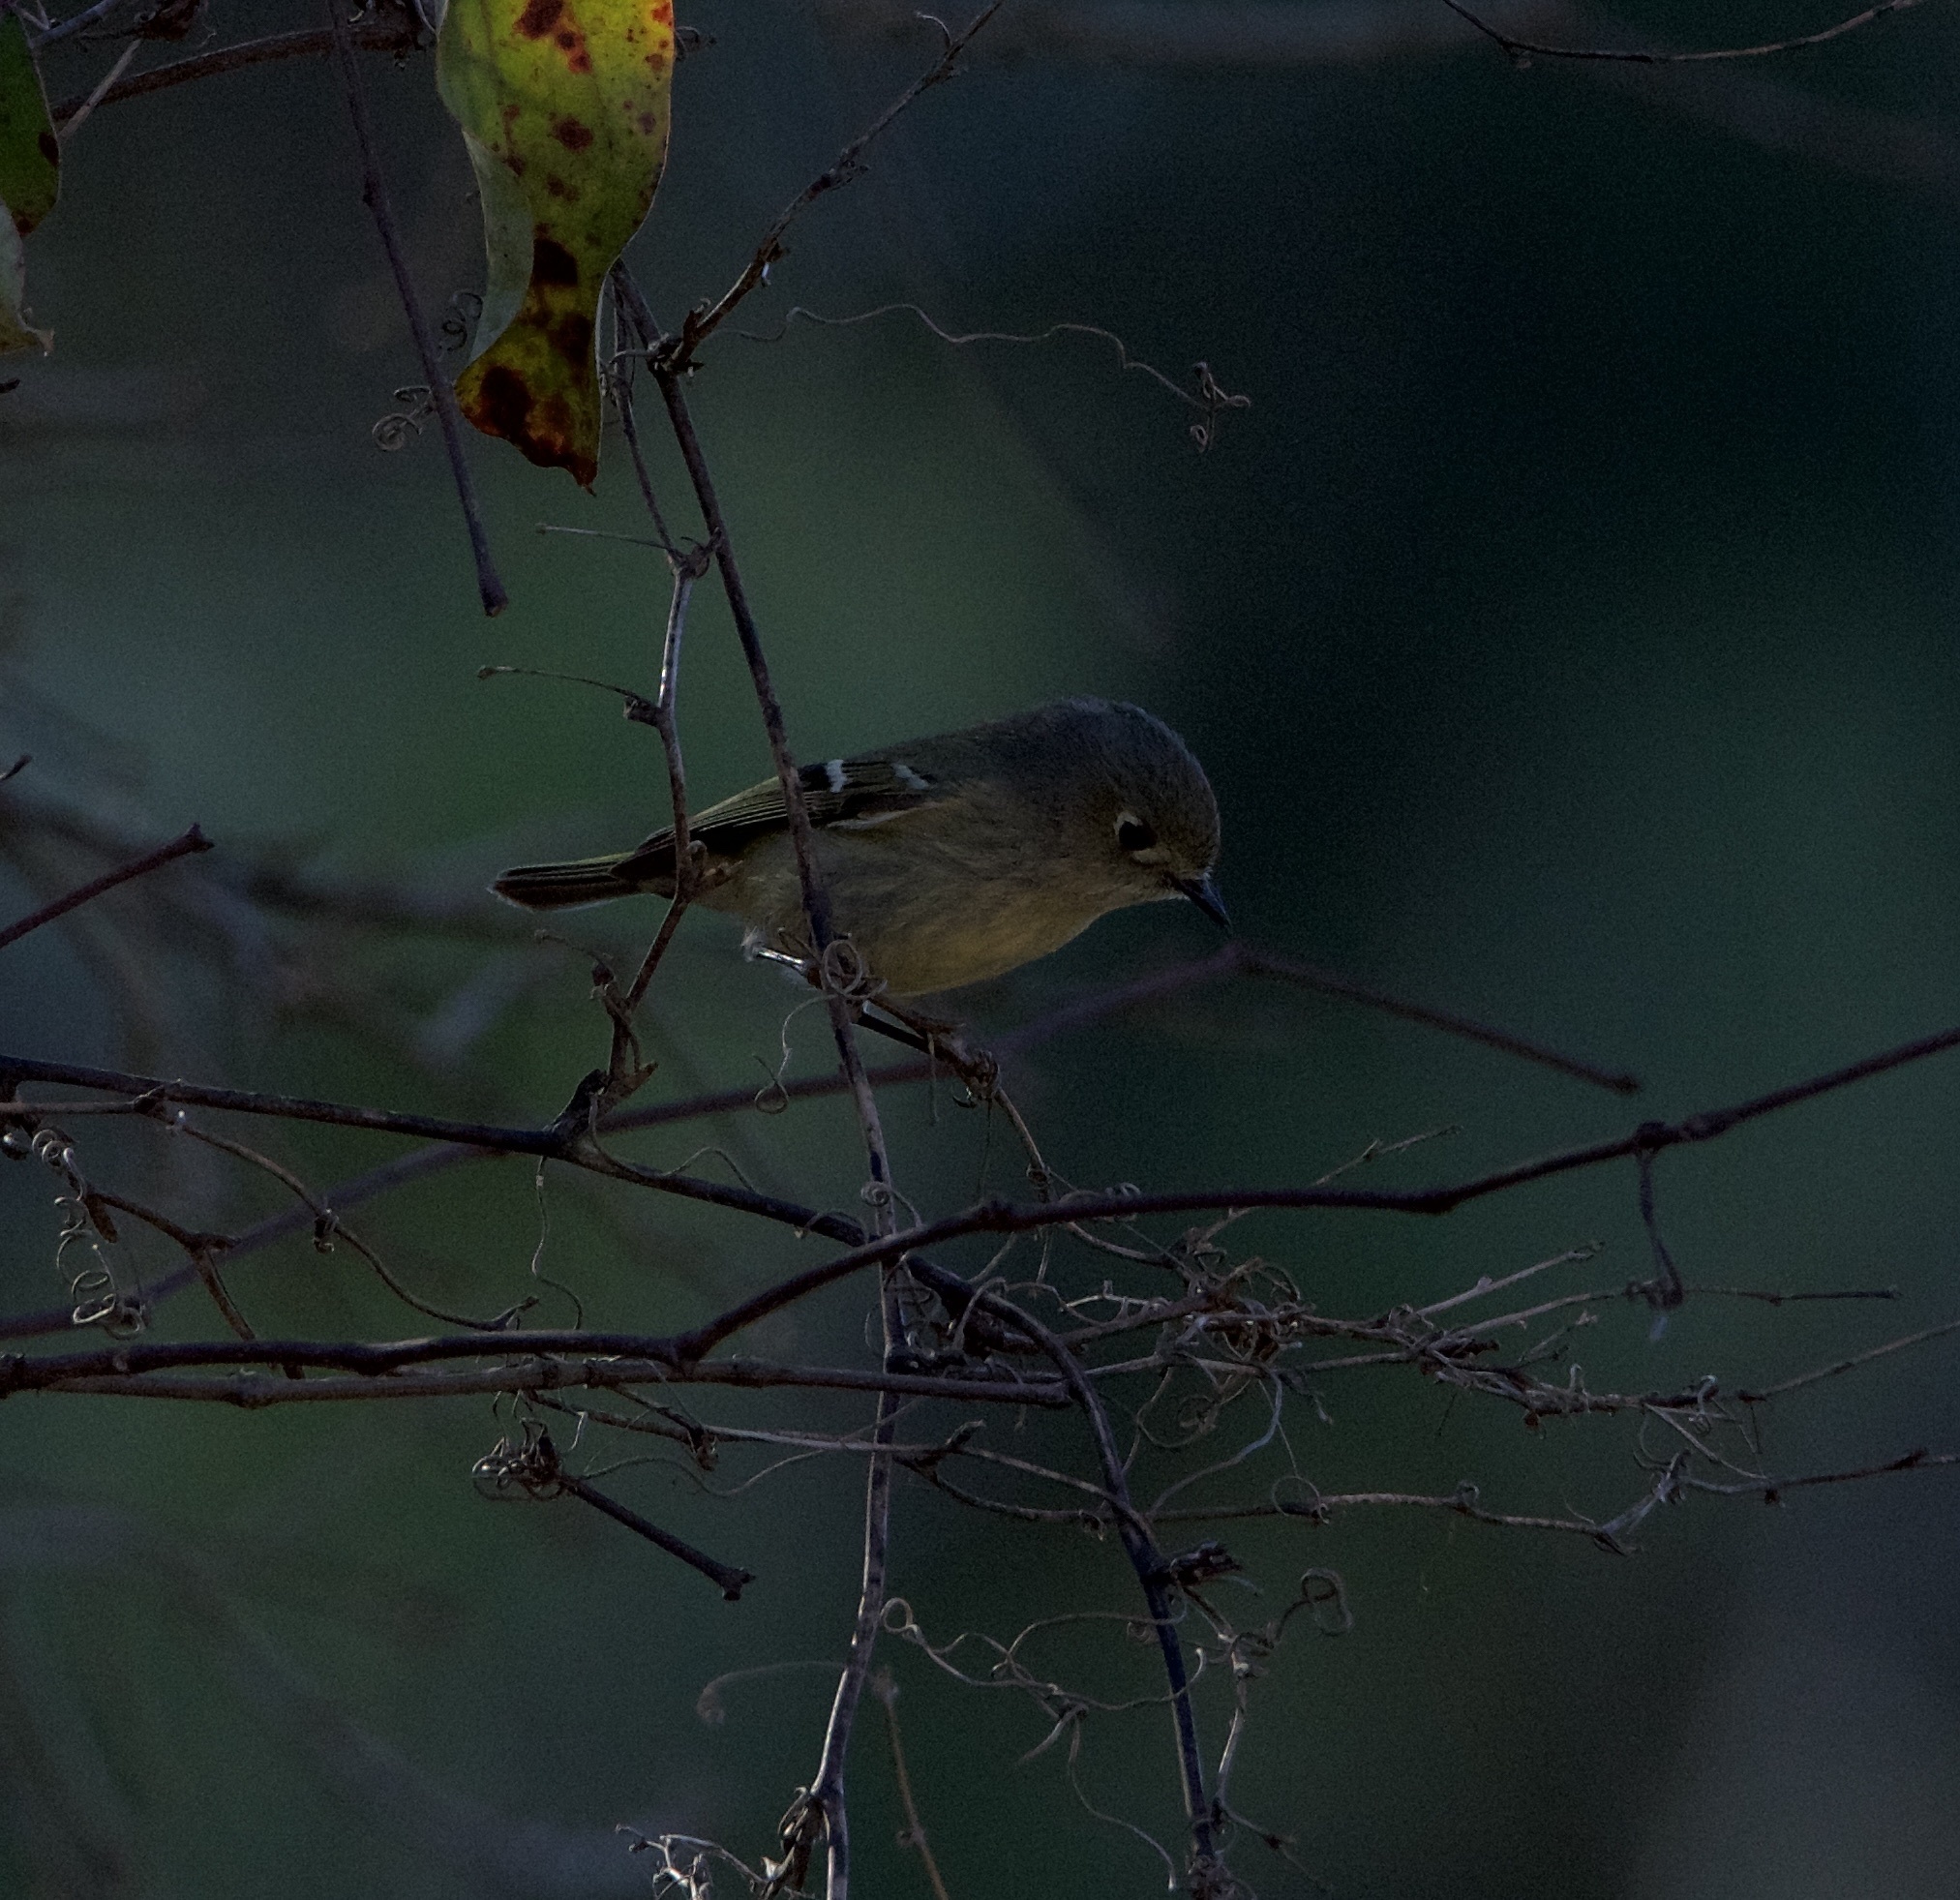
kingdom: Animalia
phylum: Chordata
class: Aves
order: Passeriformes
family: Regulidae
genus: Regulus
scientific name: Regulus calendula
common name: Ruby-crowned kinglet
